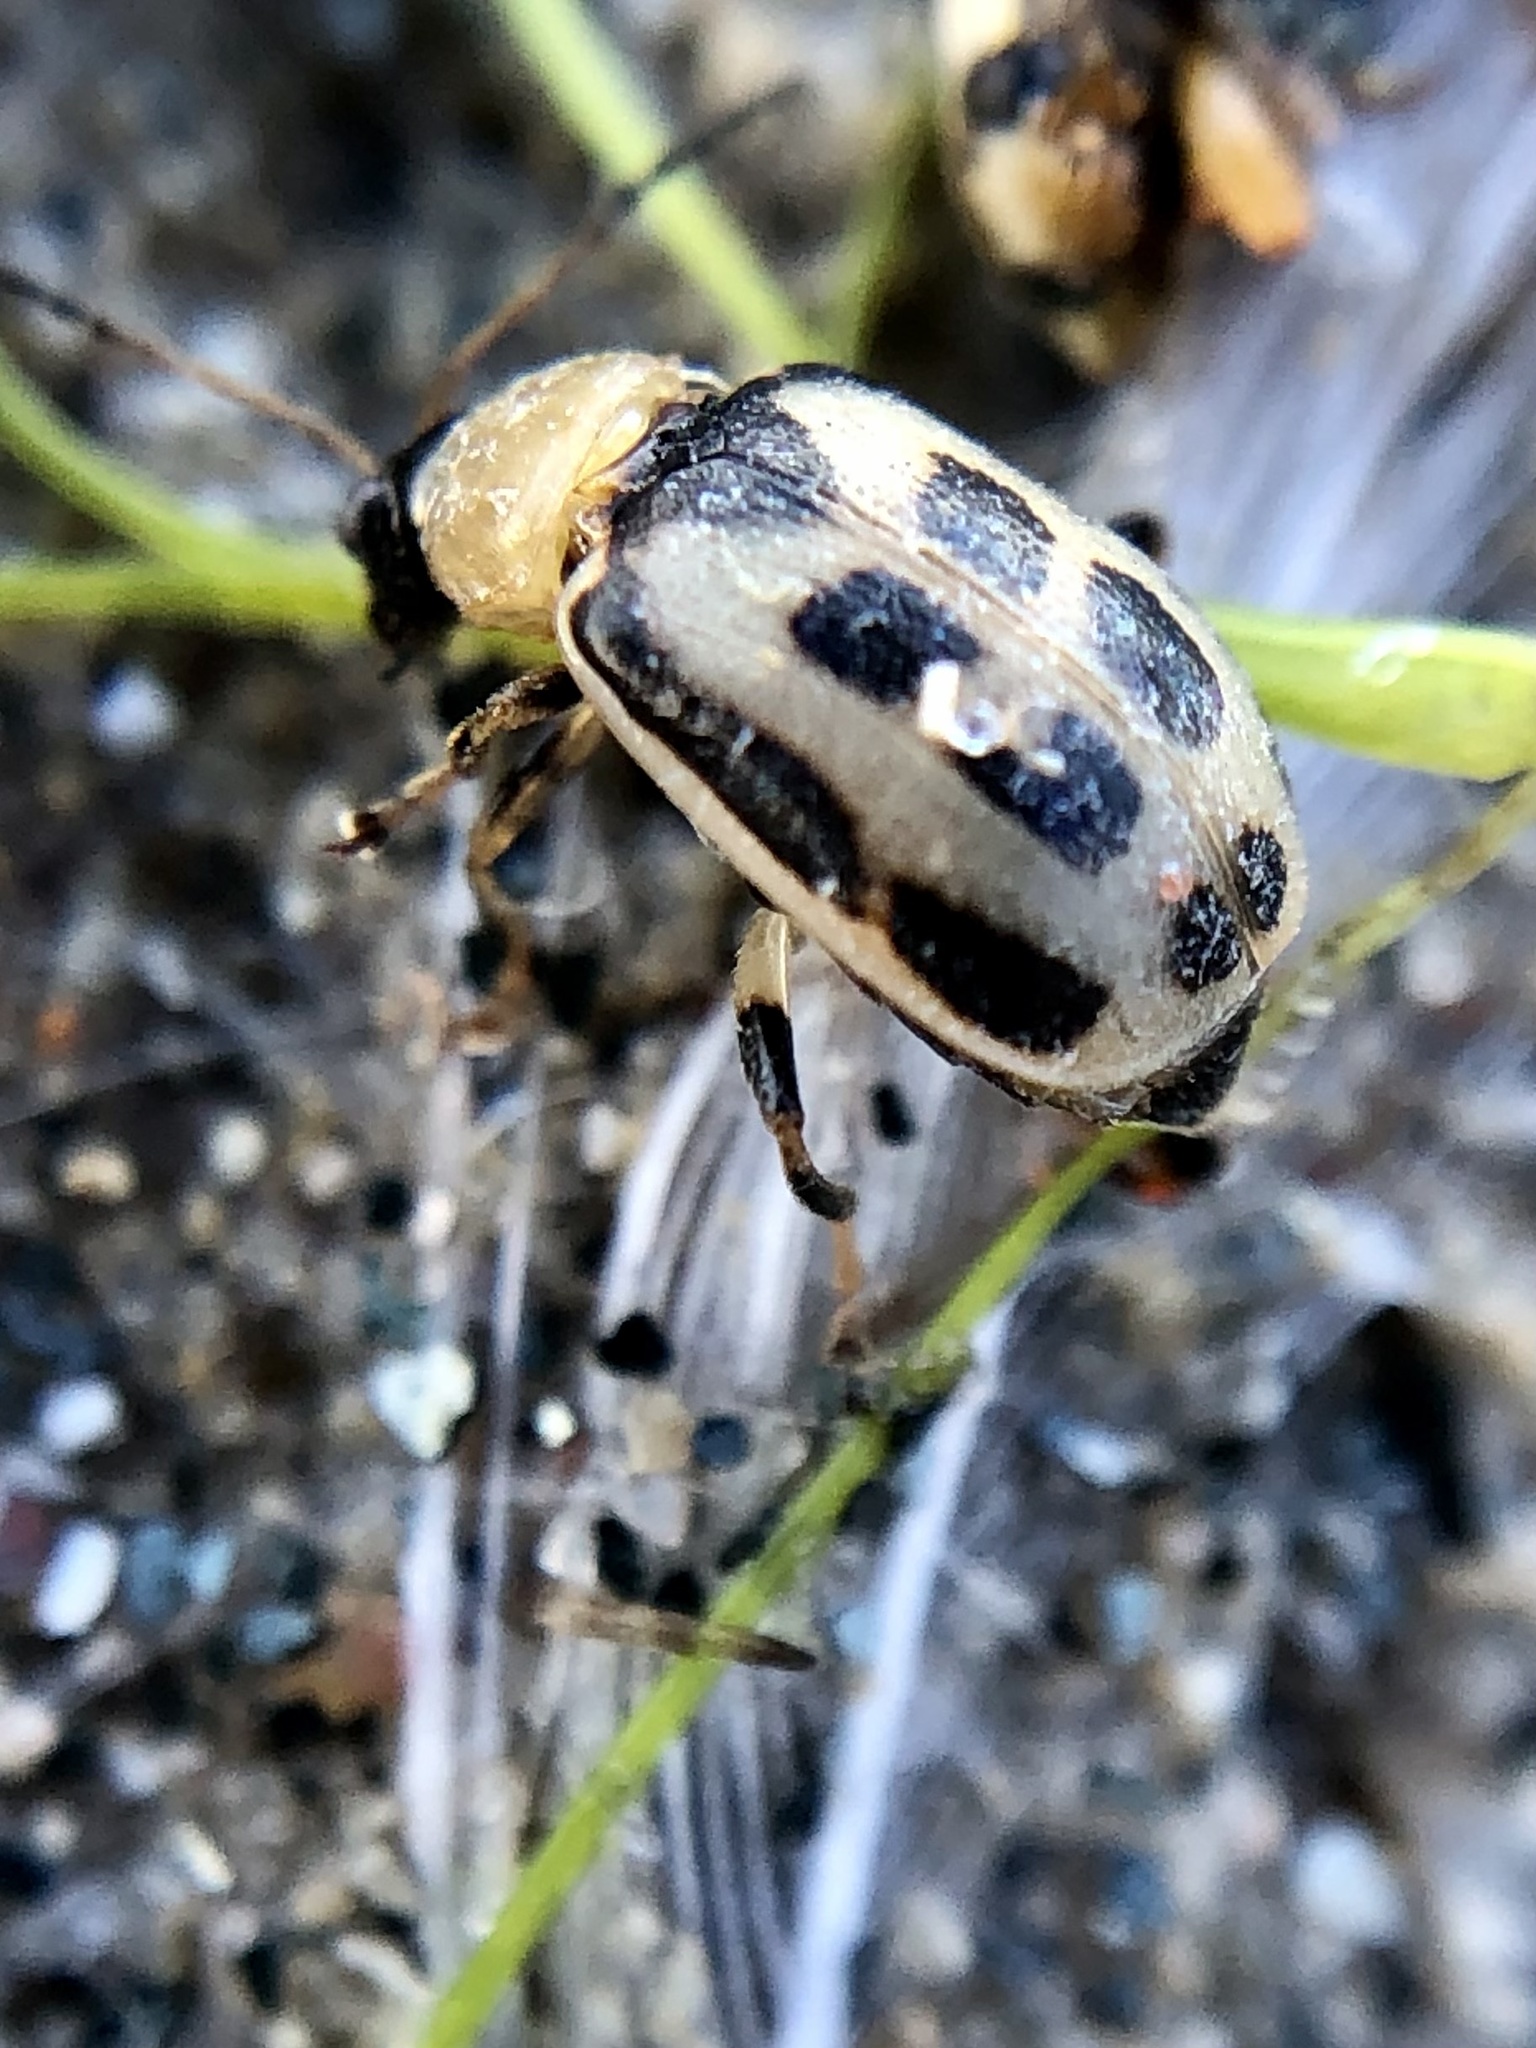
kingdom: Animalia
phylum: Arthropoda
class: Insecta
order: Coleoptera
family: Chrysomelidae
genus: Cerotoma
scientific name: Cerotoma trifurcata
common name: Bean leaf beetle
